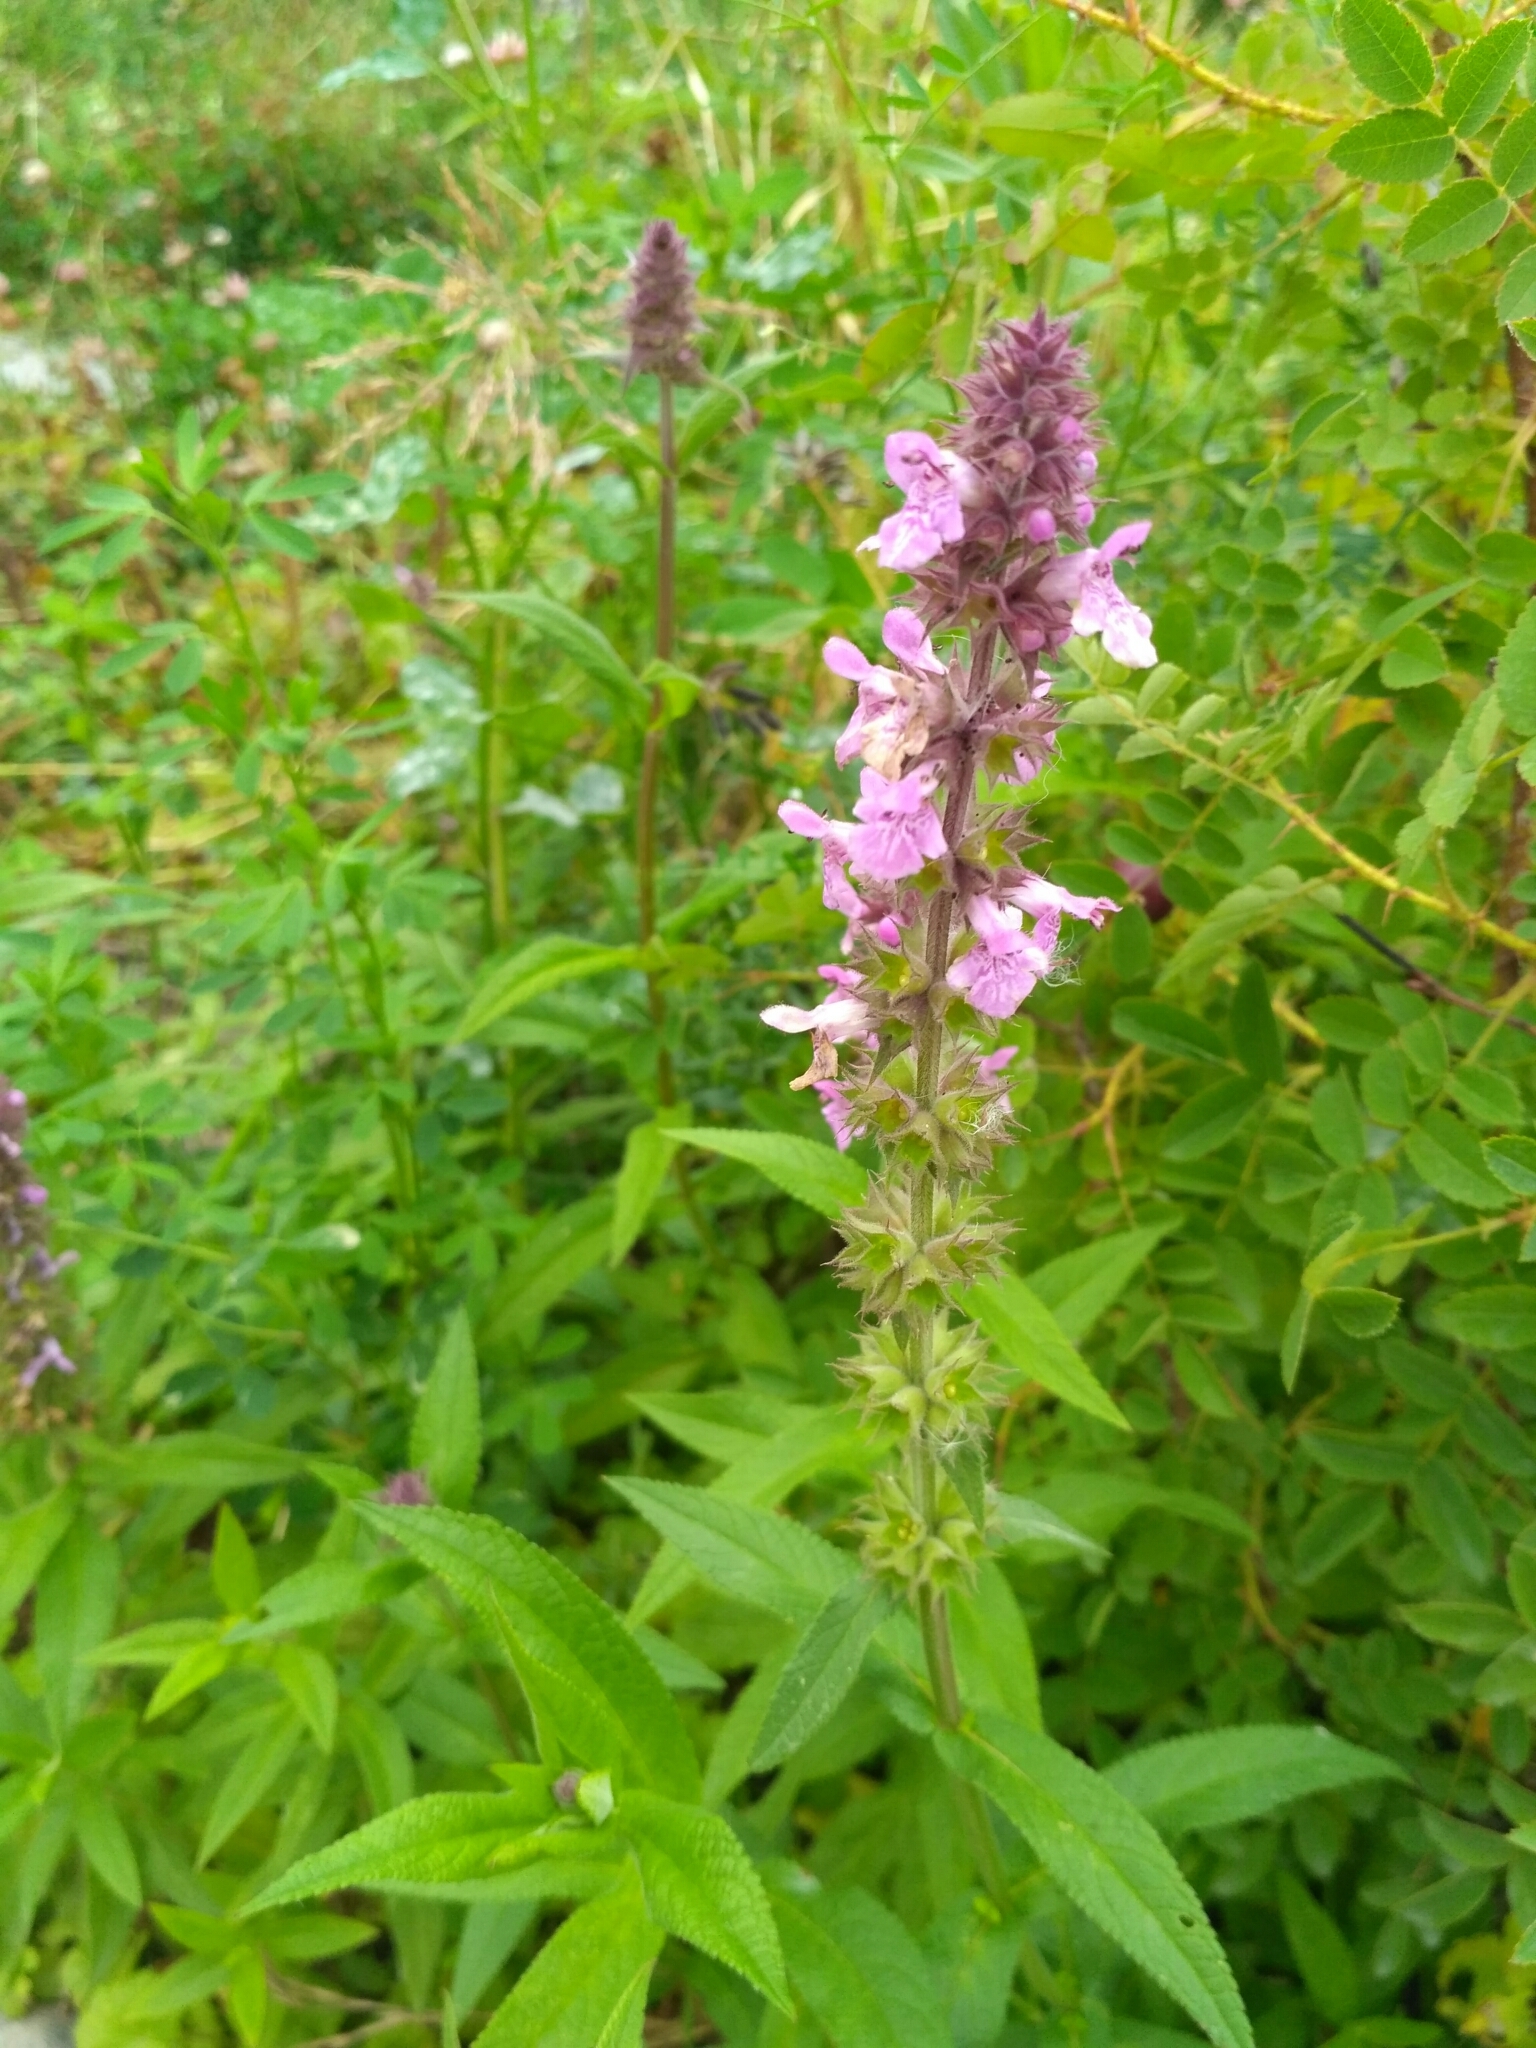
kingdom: Plantae
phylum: Tracheophyta
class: Magnoliopsida
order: Lamiales
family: Lamiaceae
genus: Stachys
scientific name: Stachys palustris
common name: Marsh woundwort
